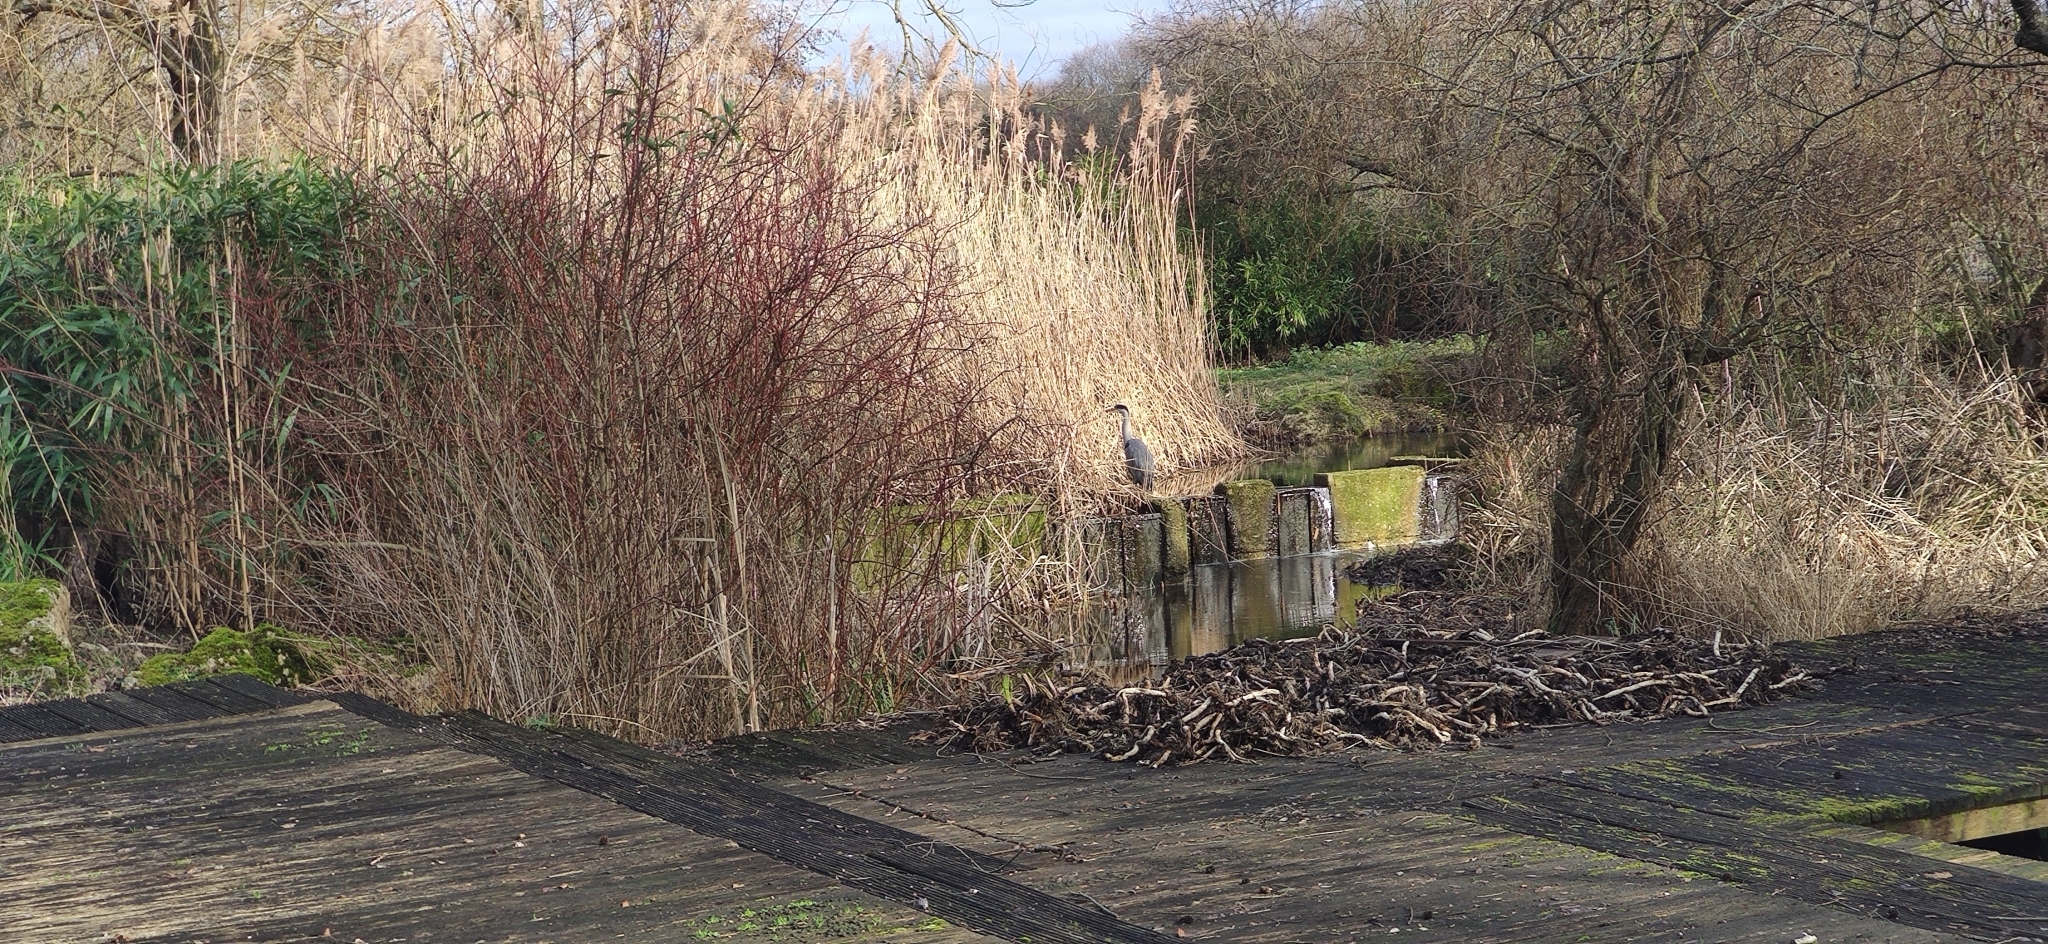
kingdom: Animalia
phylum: Chordata
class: Aves
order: Pelecaniformes
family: Ardeidae
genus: Ardea
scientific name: Ardea cinerea
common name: Grey heron
